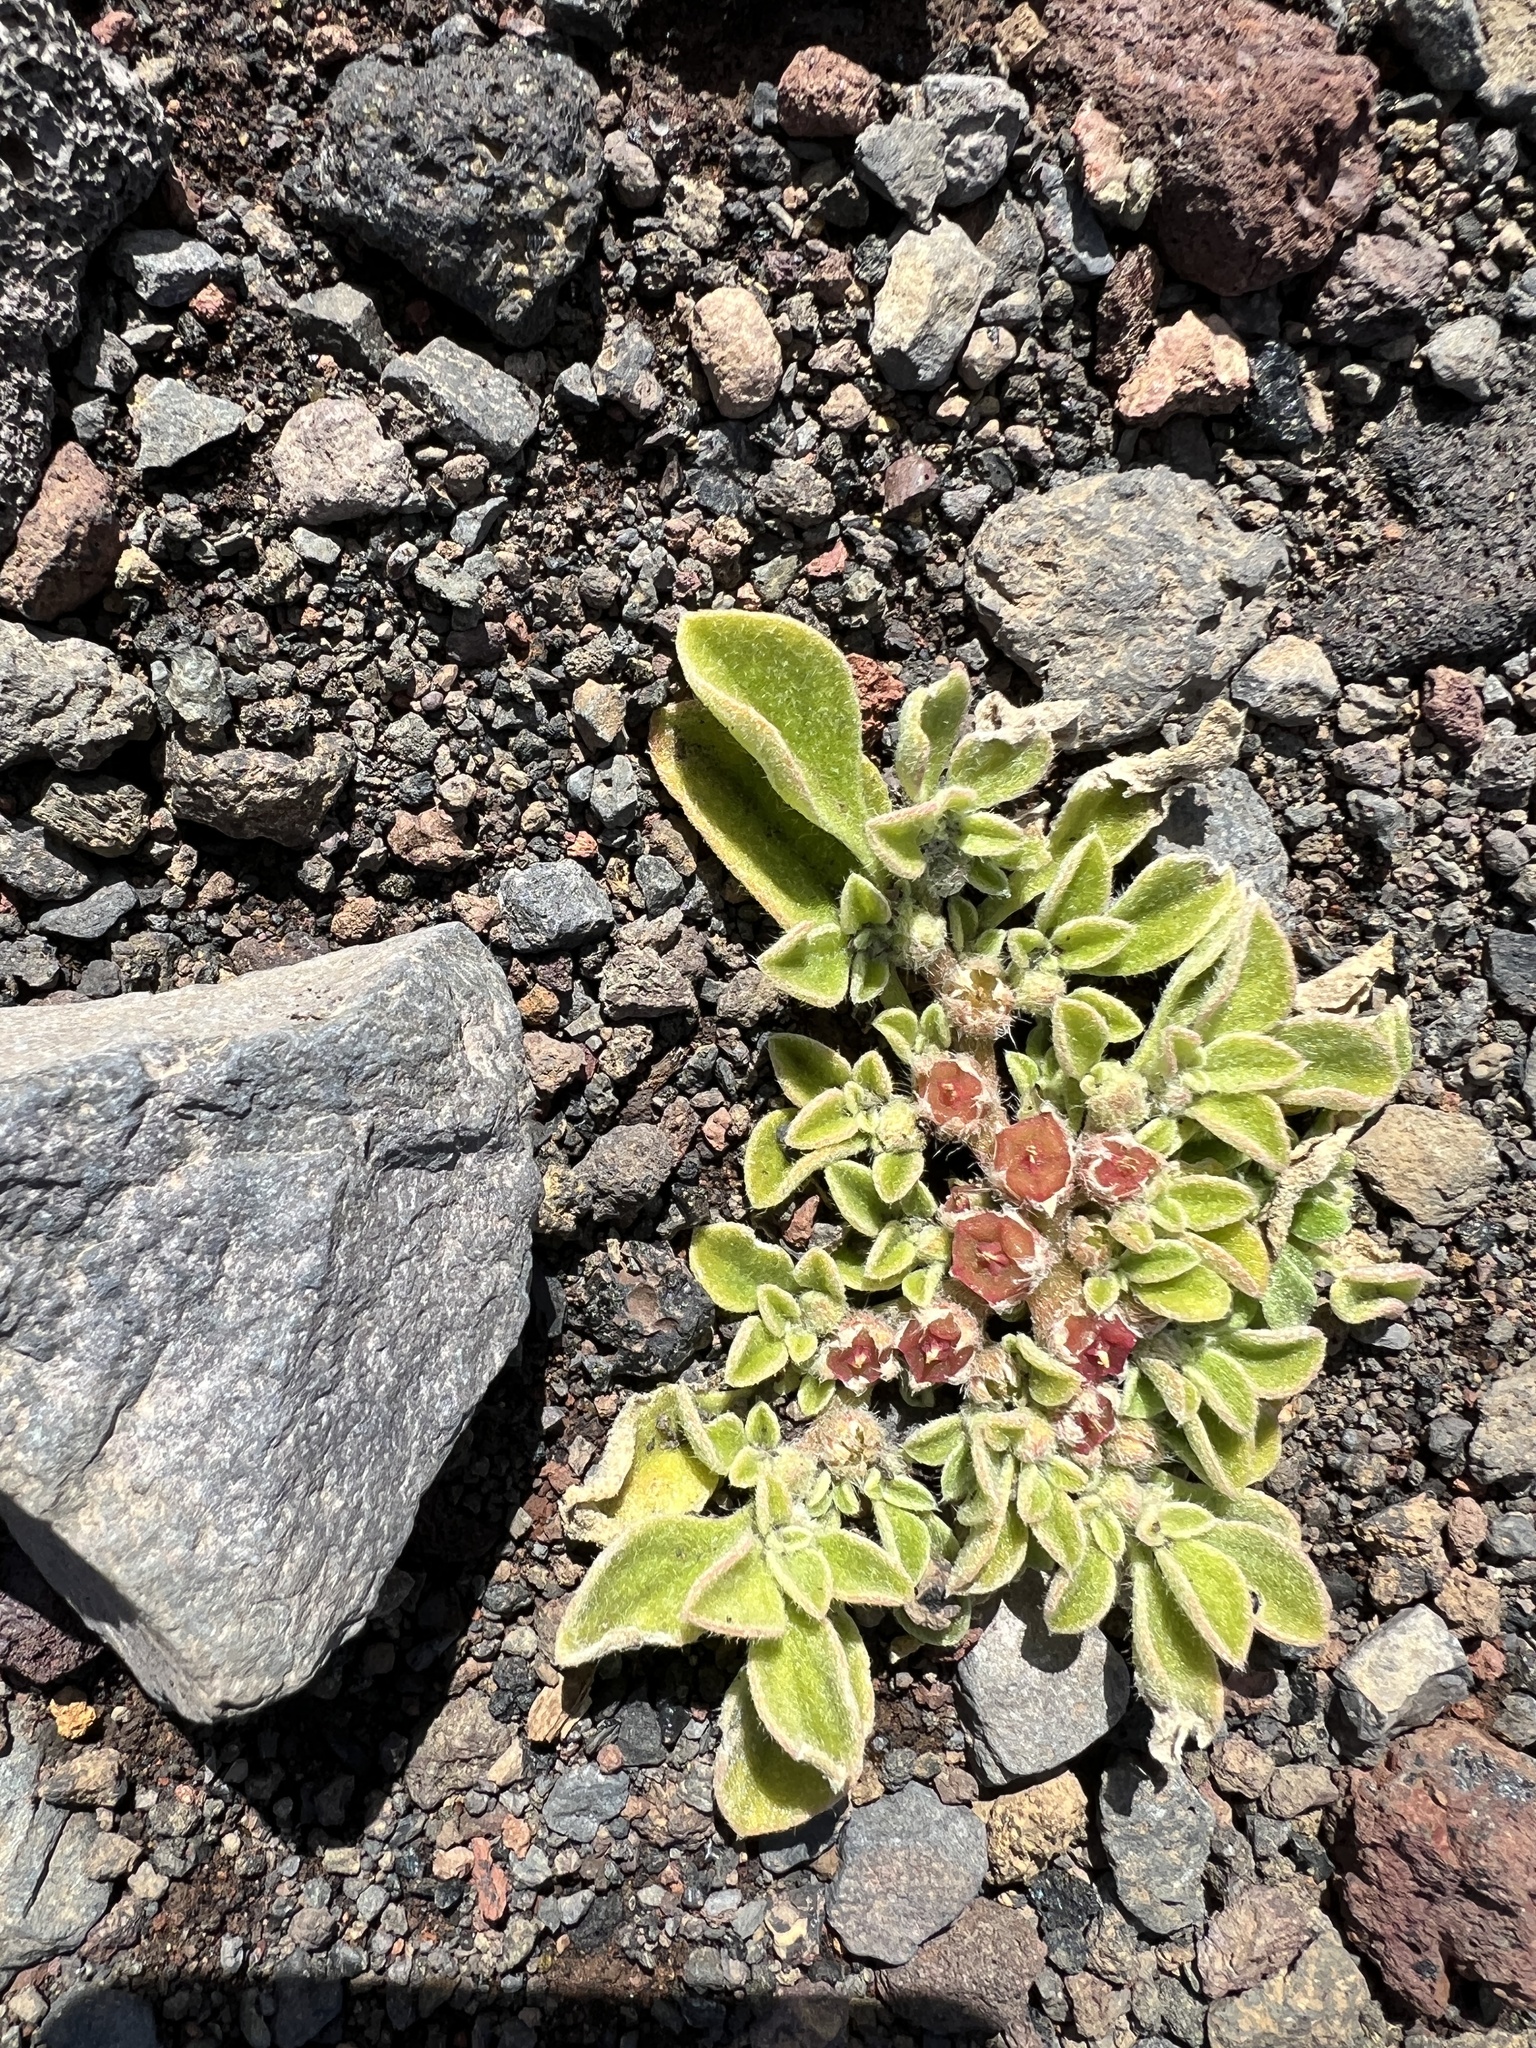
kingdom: Plantae
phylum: Tracheophyta
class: Magnoliopsida
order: Caryophyllales
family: Aizoaceae
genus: Aizoon
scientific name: Aizoon canariense
